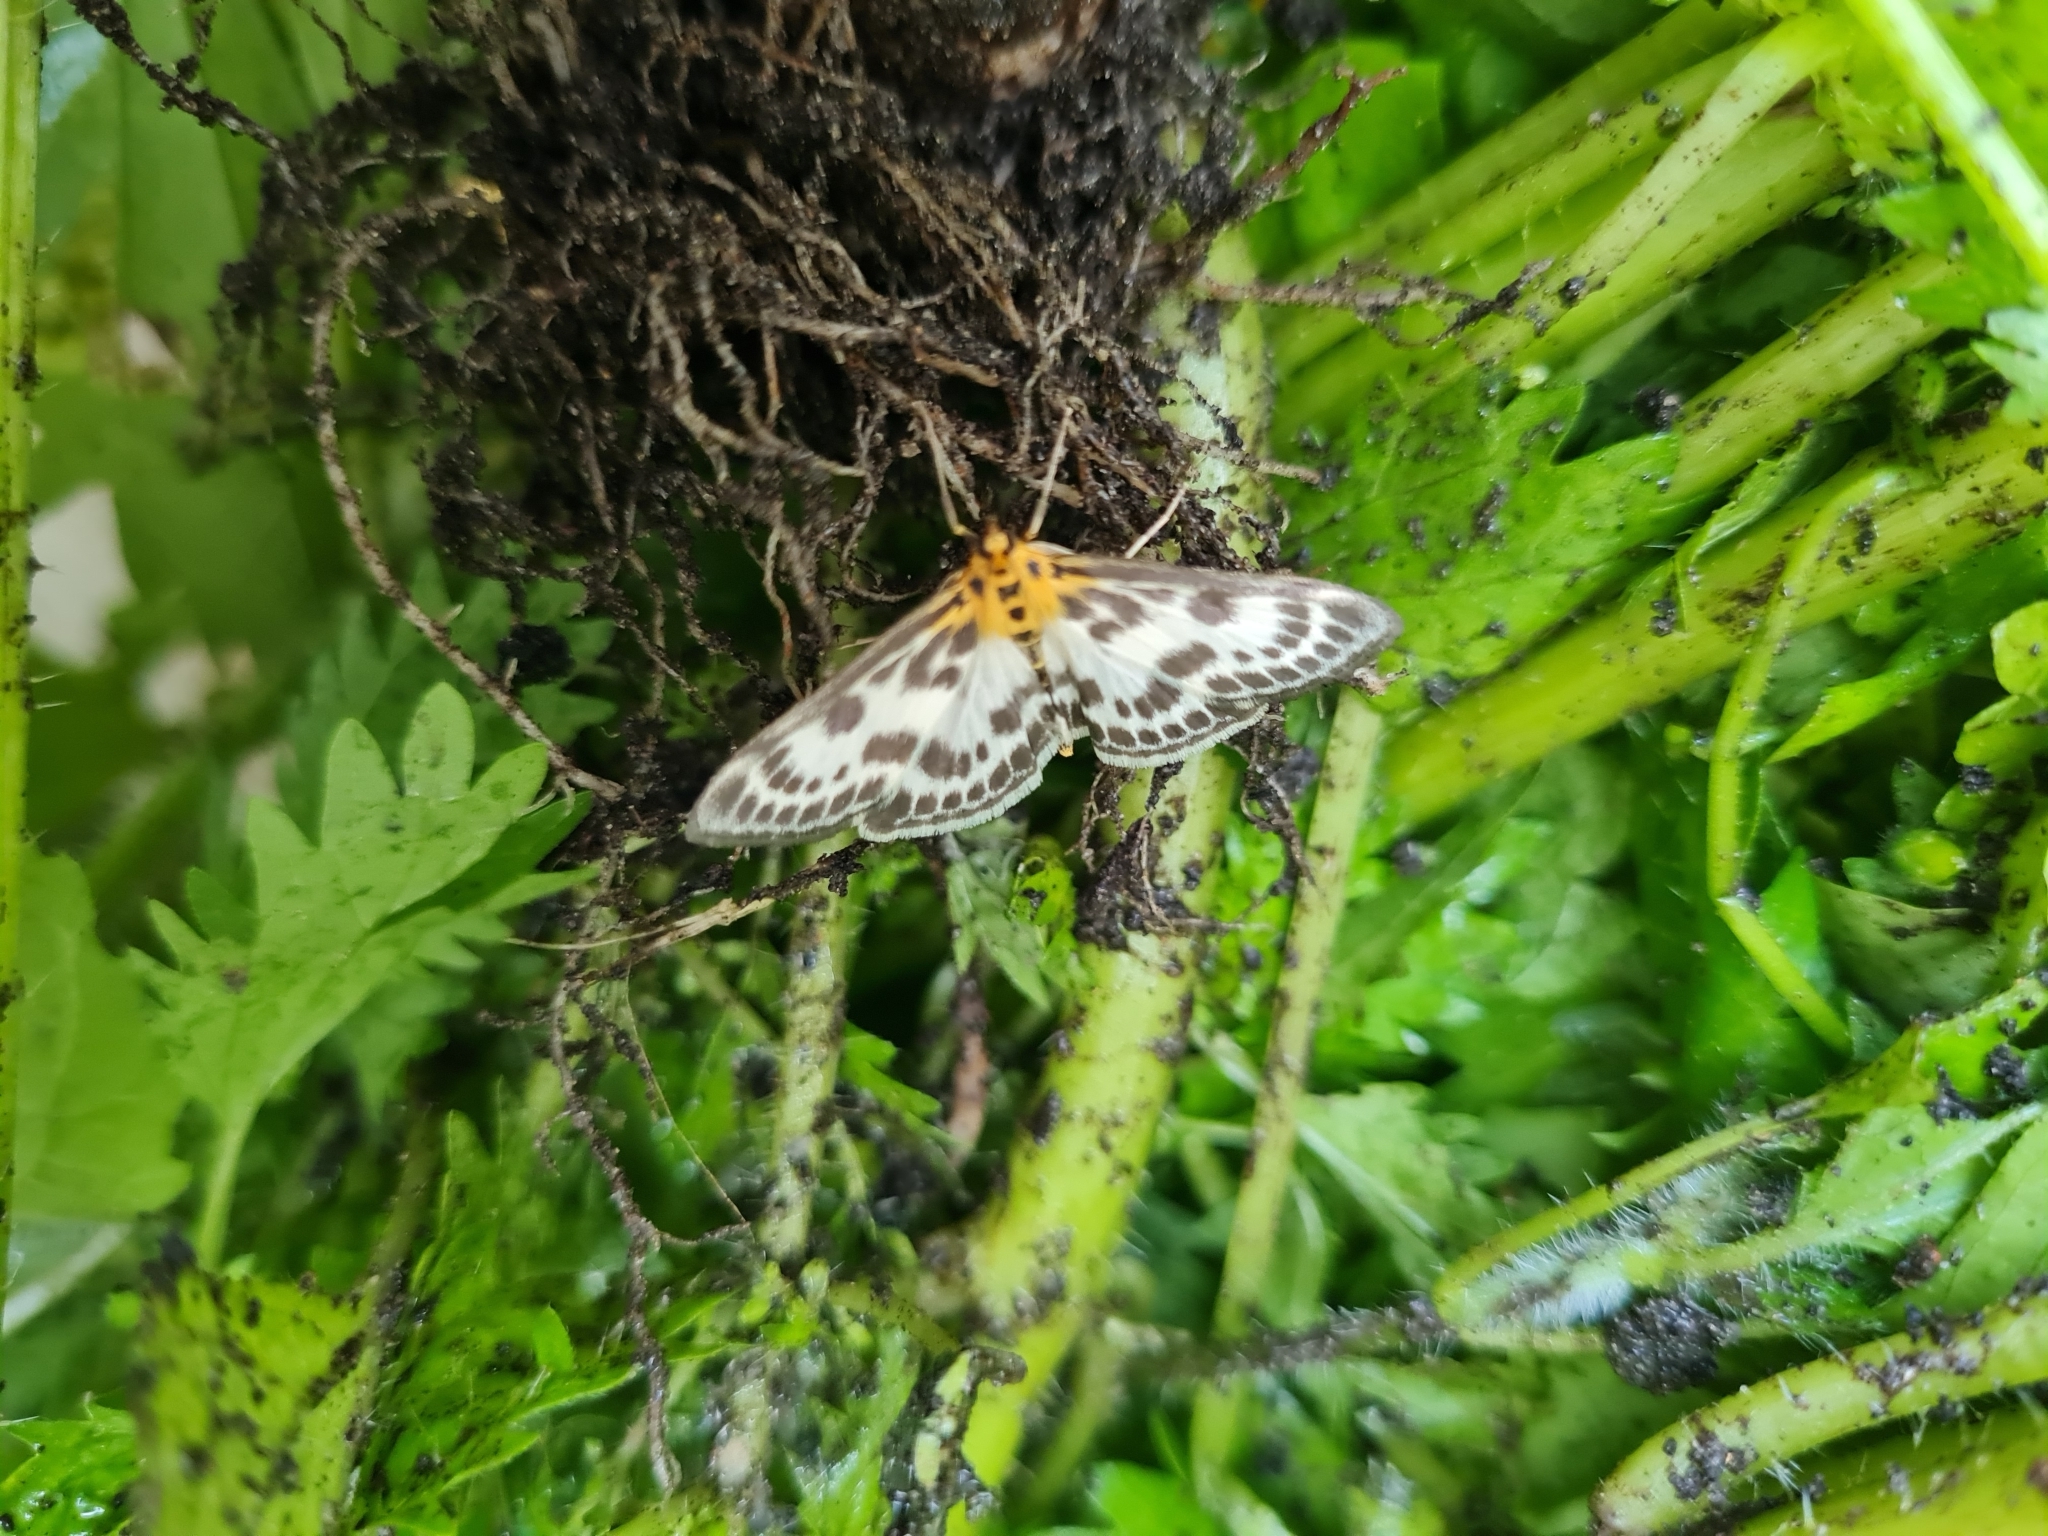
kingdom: Animalia
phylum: Arthropoda
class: Insecta
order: Lepidoptera
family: Crambidae
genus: Anania
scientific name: Anania hortulata
